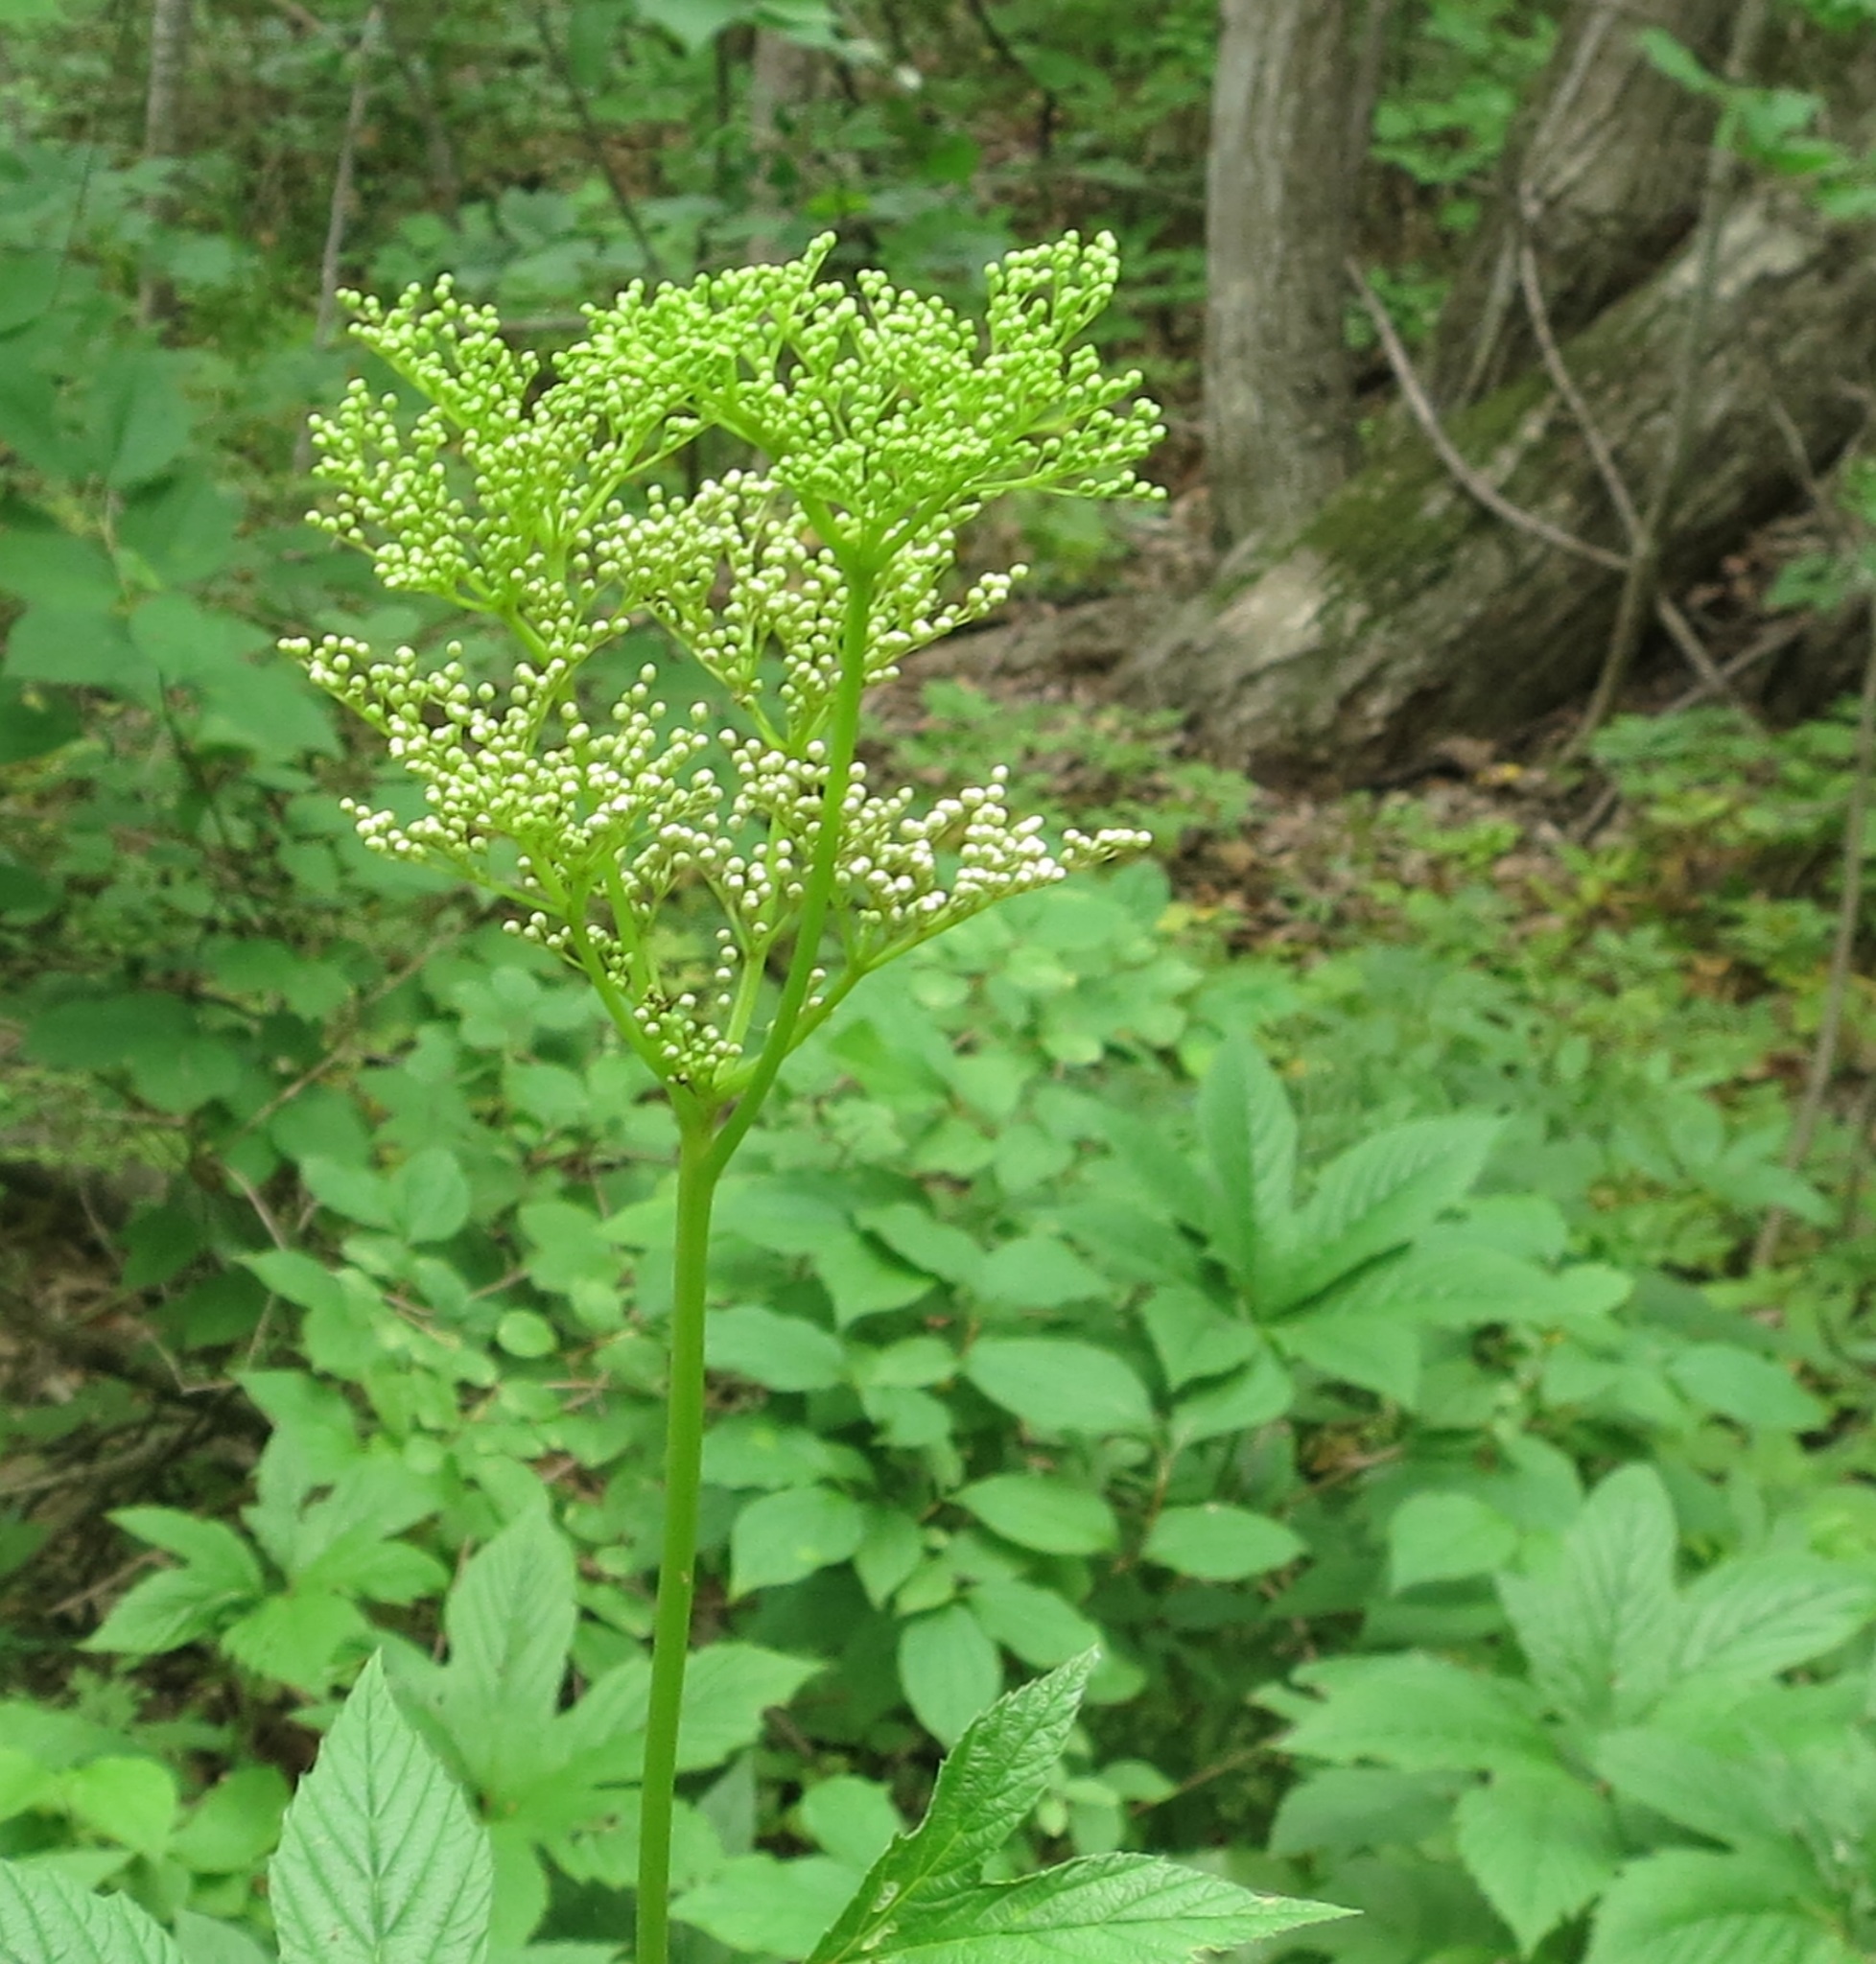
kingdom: Plantae
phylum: Tracheophyta
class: Magnoliopsida
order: Rosales
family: Rosaceae
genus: Filipendula
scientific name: Filipendula digitata
